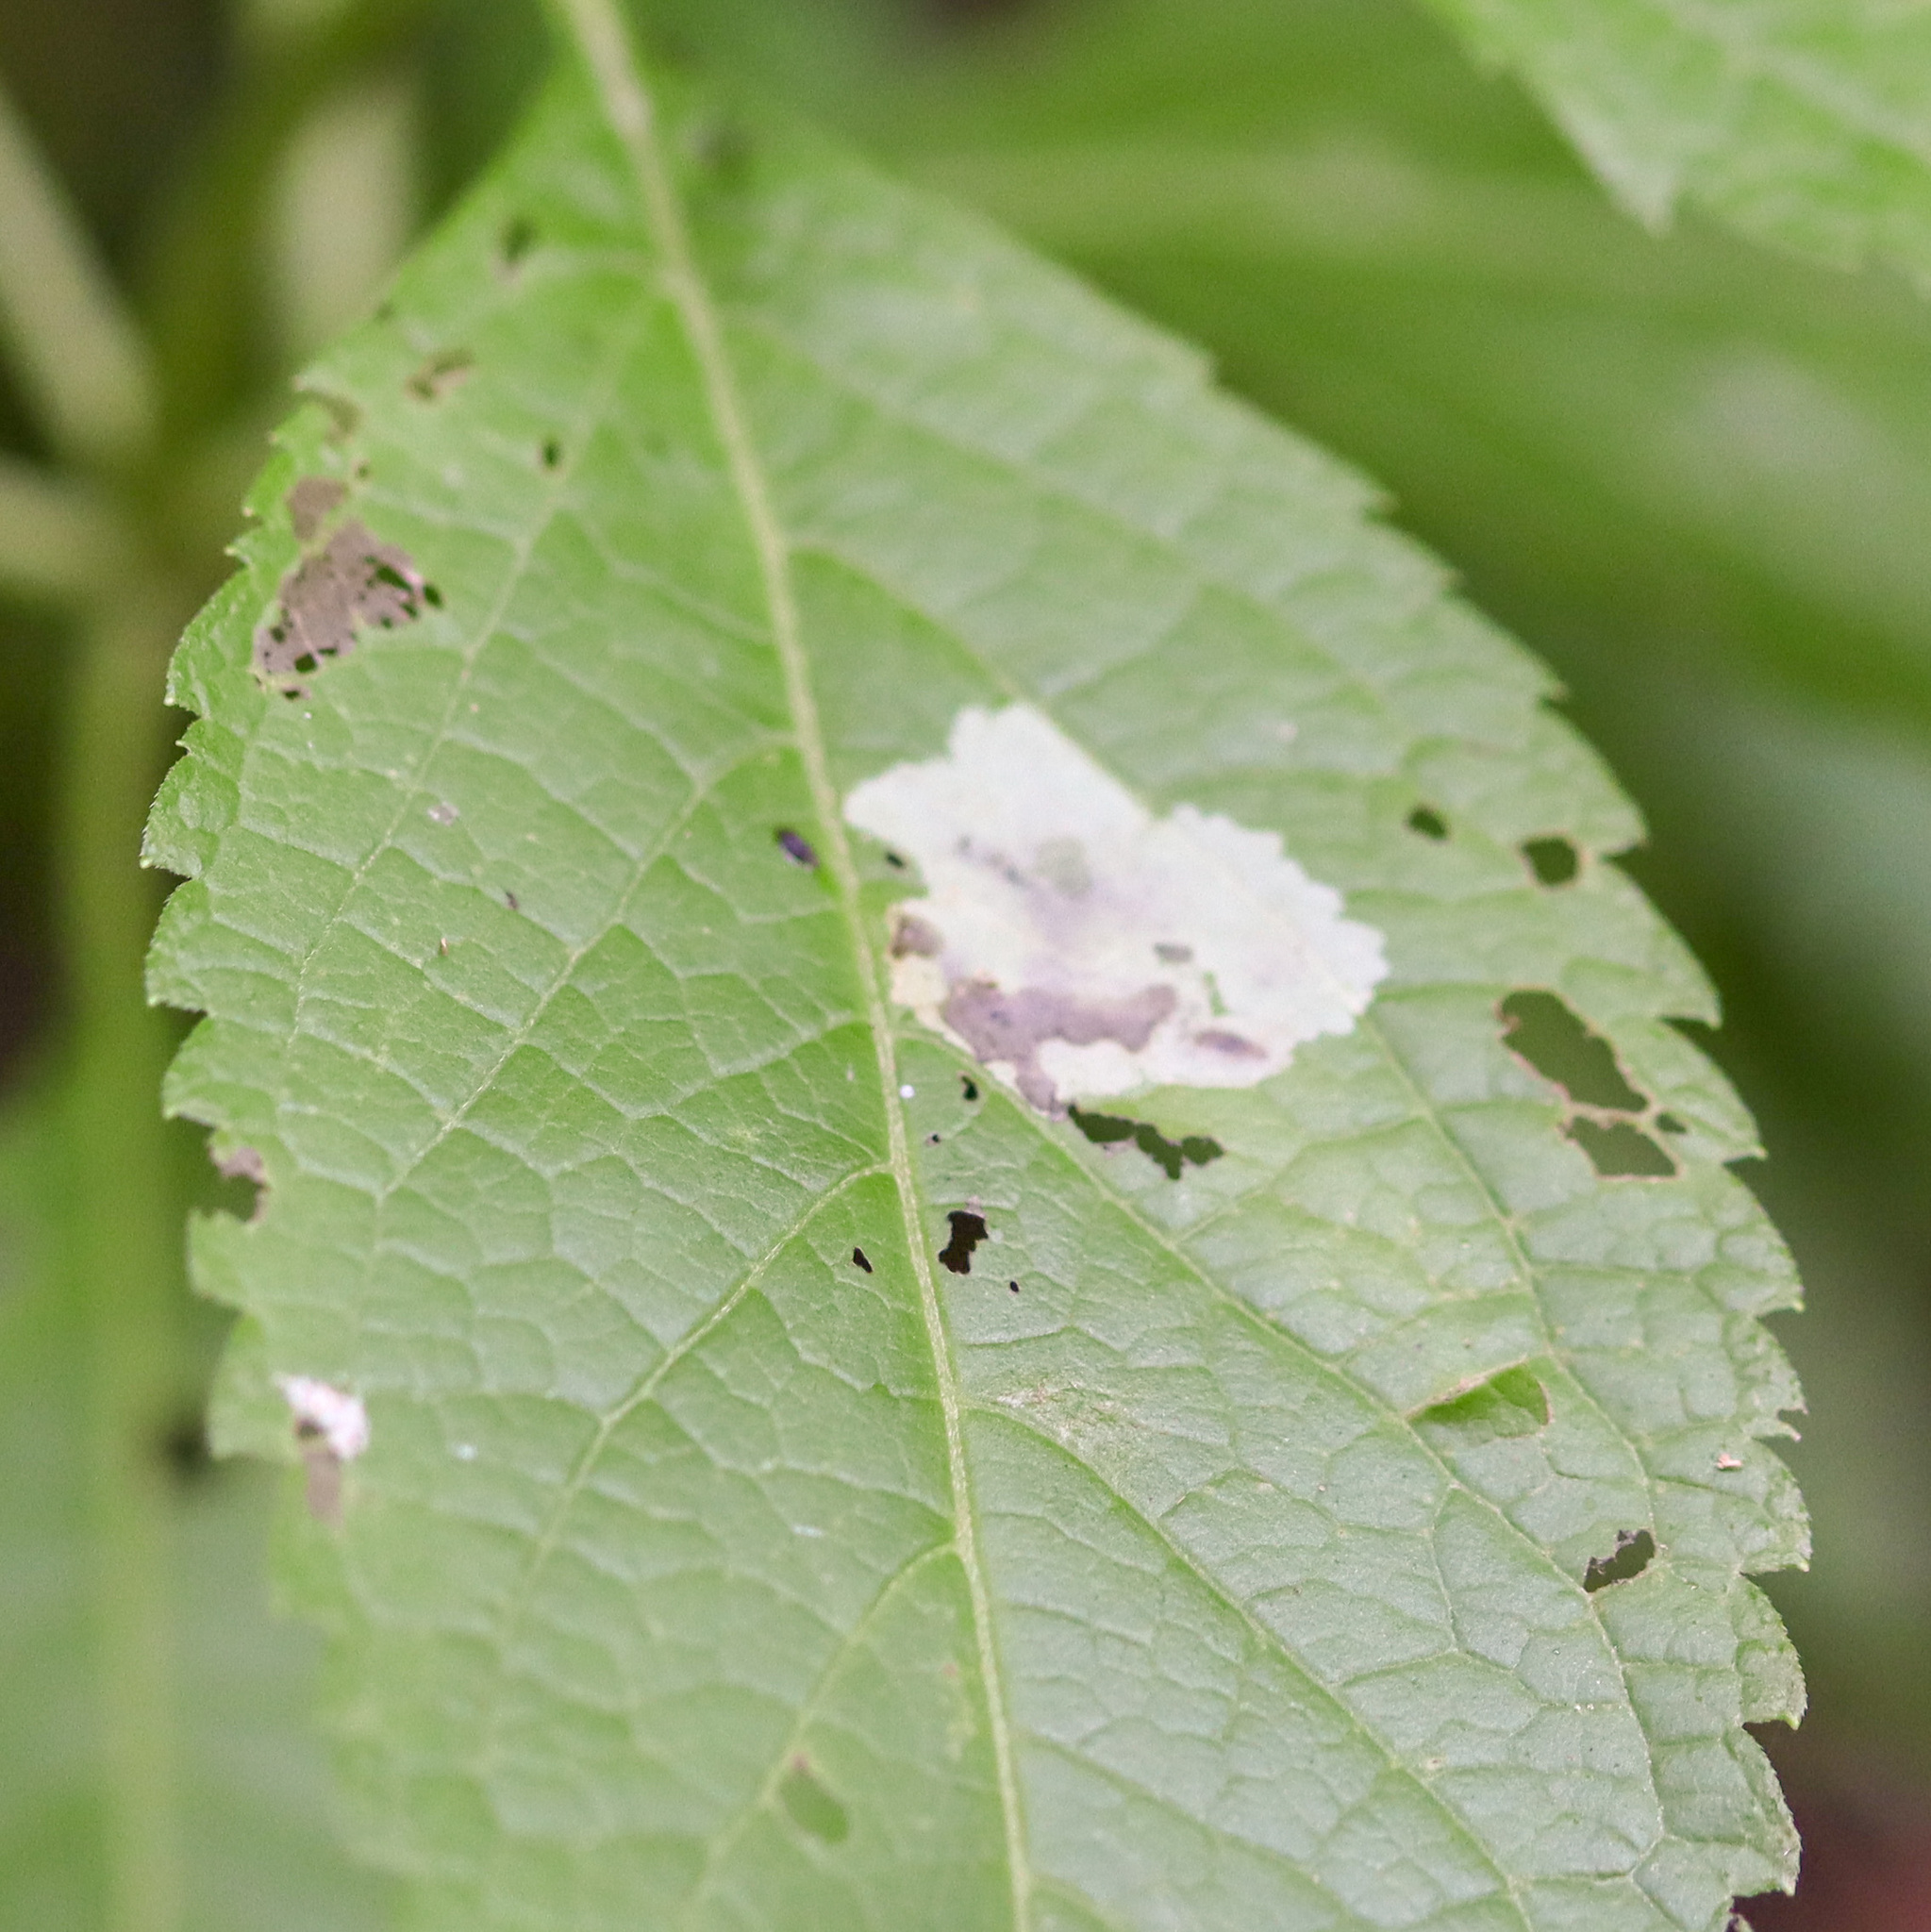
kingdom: Animalia
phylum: Arthropoda
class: Insecta
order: Diptera
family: Agromyzidae
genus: Calycomyza
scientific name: Calycomyza flavinotum
